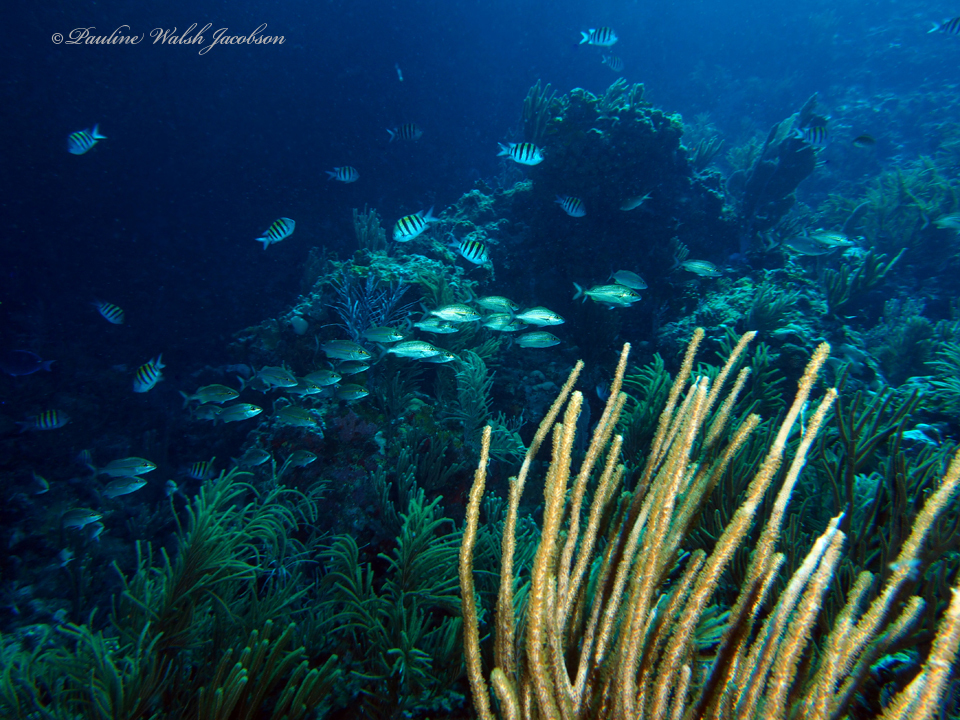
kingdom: Animalia
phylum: Chordata
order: Perciformes
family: Pomacentridae
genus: Abudefduf
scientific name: Abudefduf saxatilis
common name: Sergeant major
